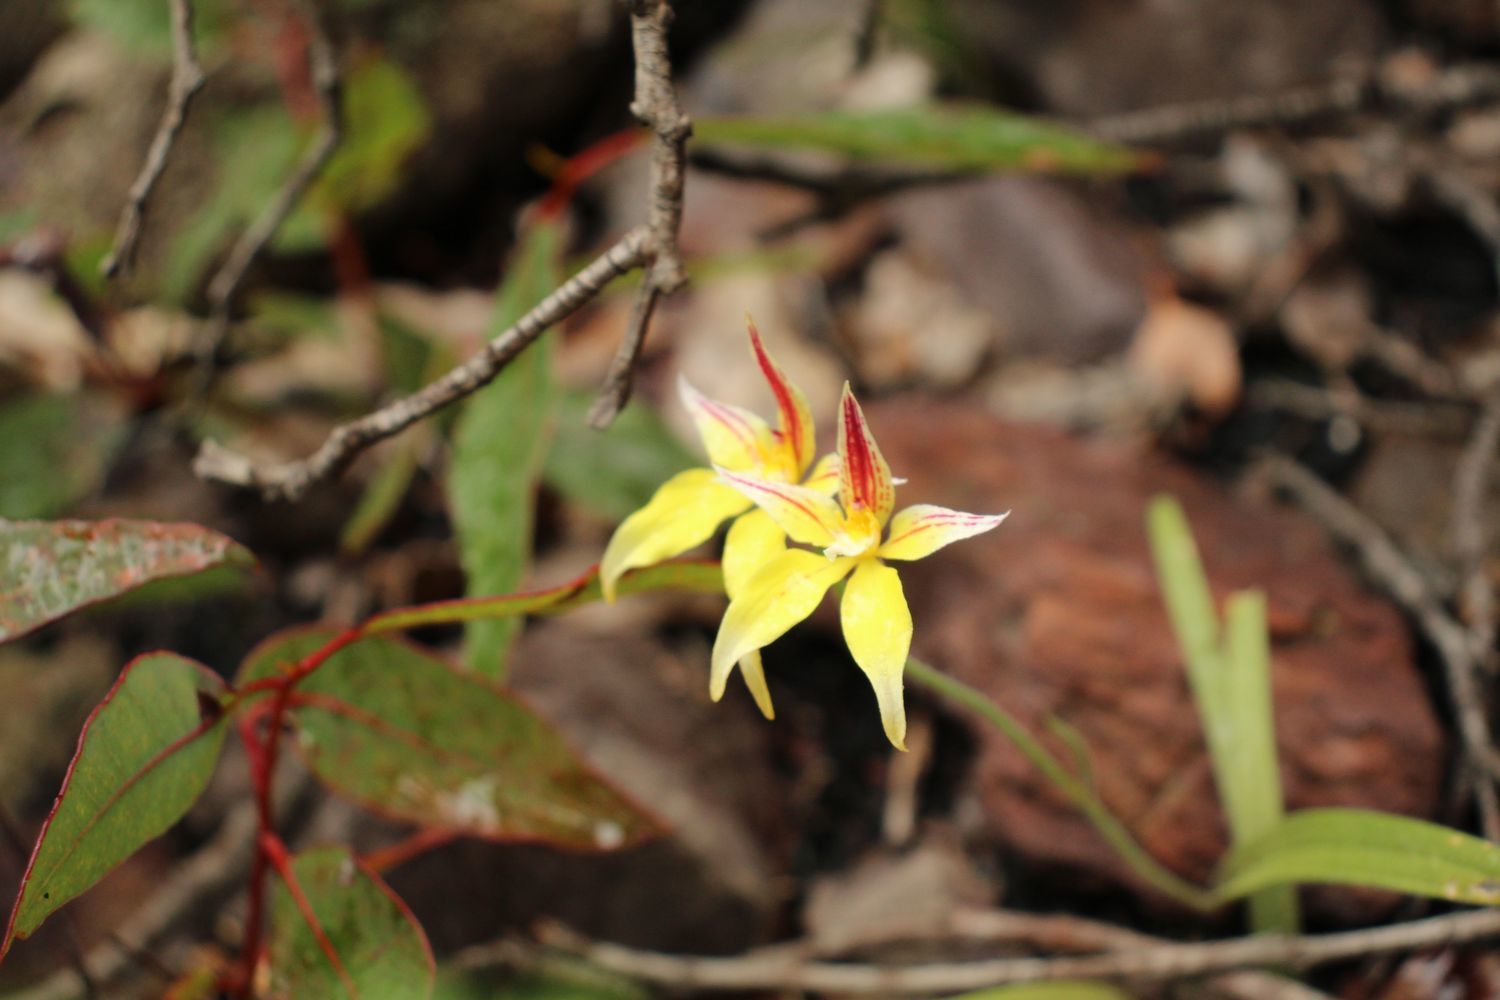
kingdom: Plantae
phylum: Tracheophyta
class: Liliopsida
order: Asparagales
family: Orchidaceae
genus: Caladenia
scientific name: Caladenia flava
